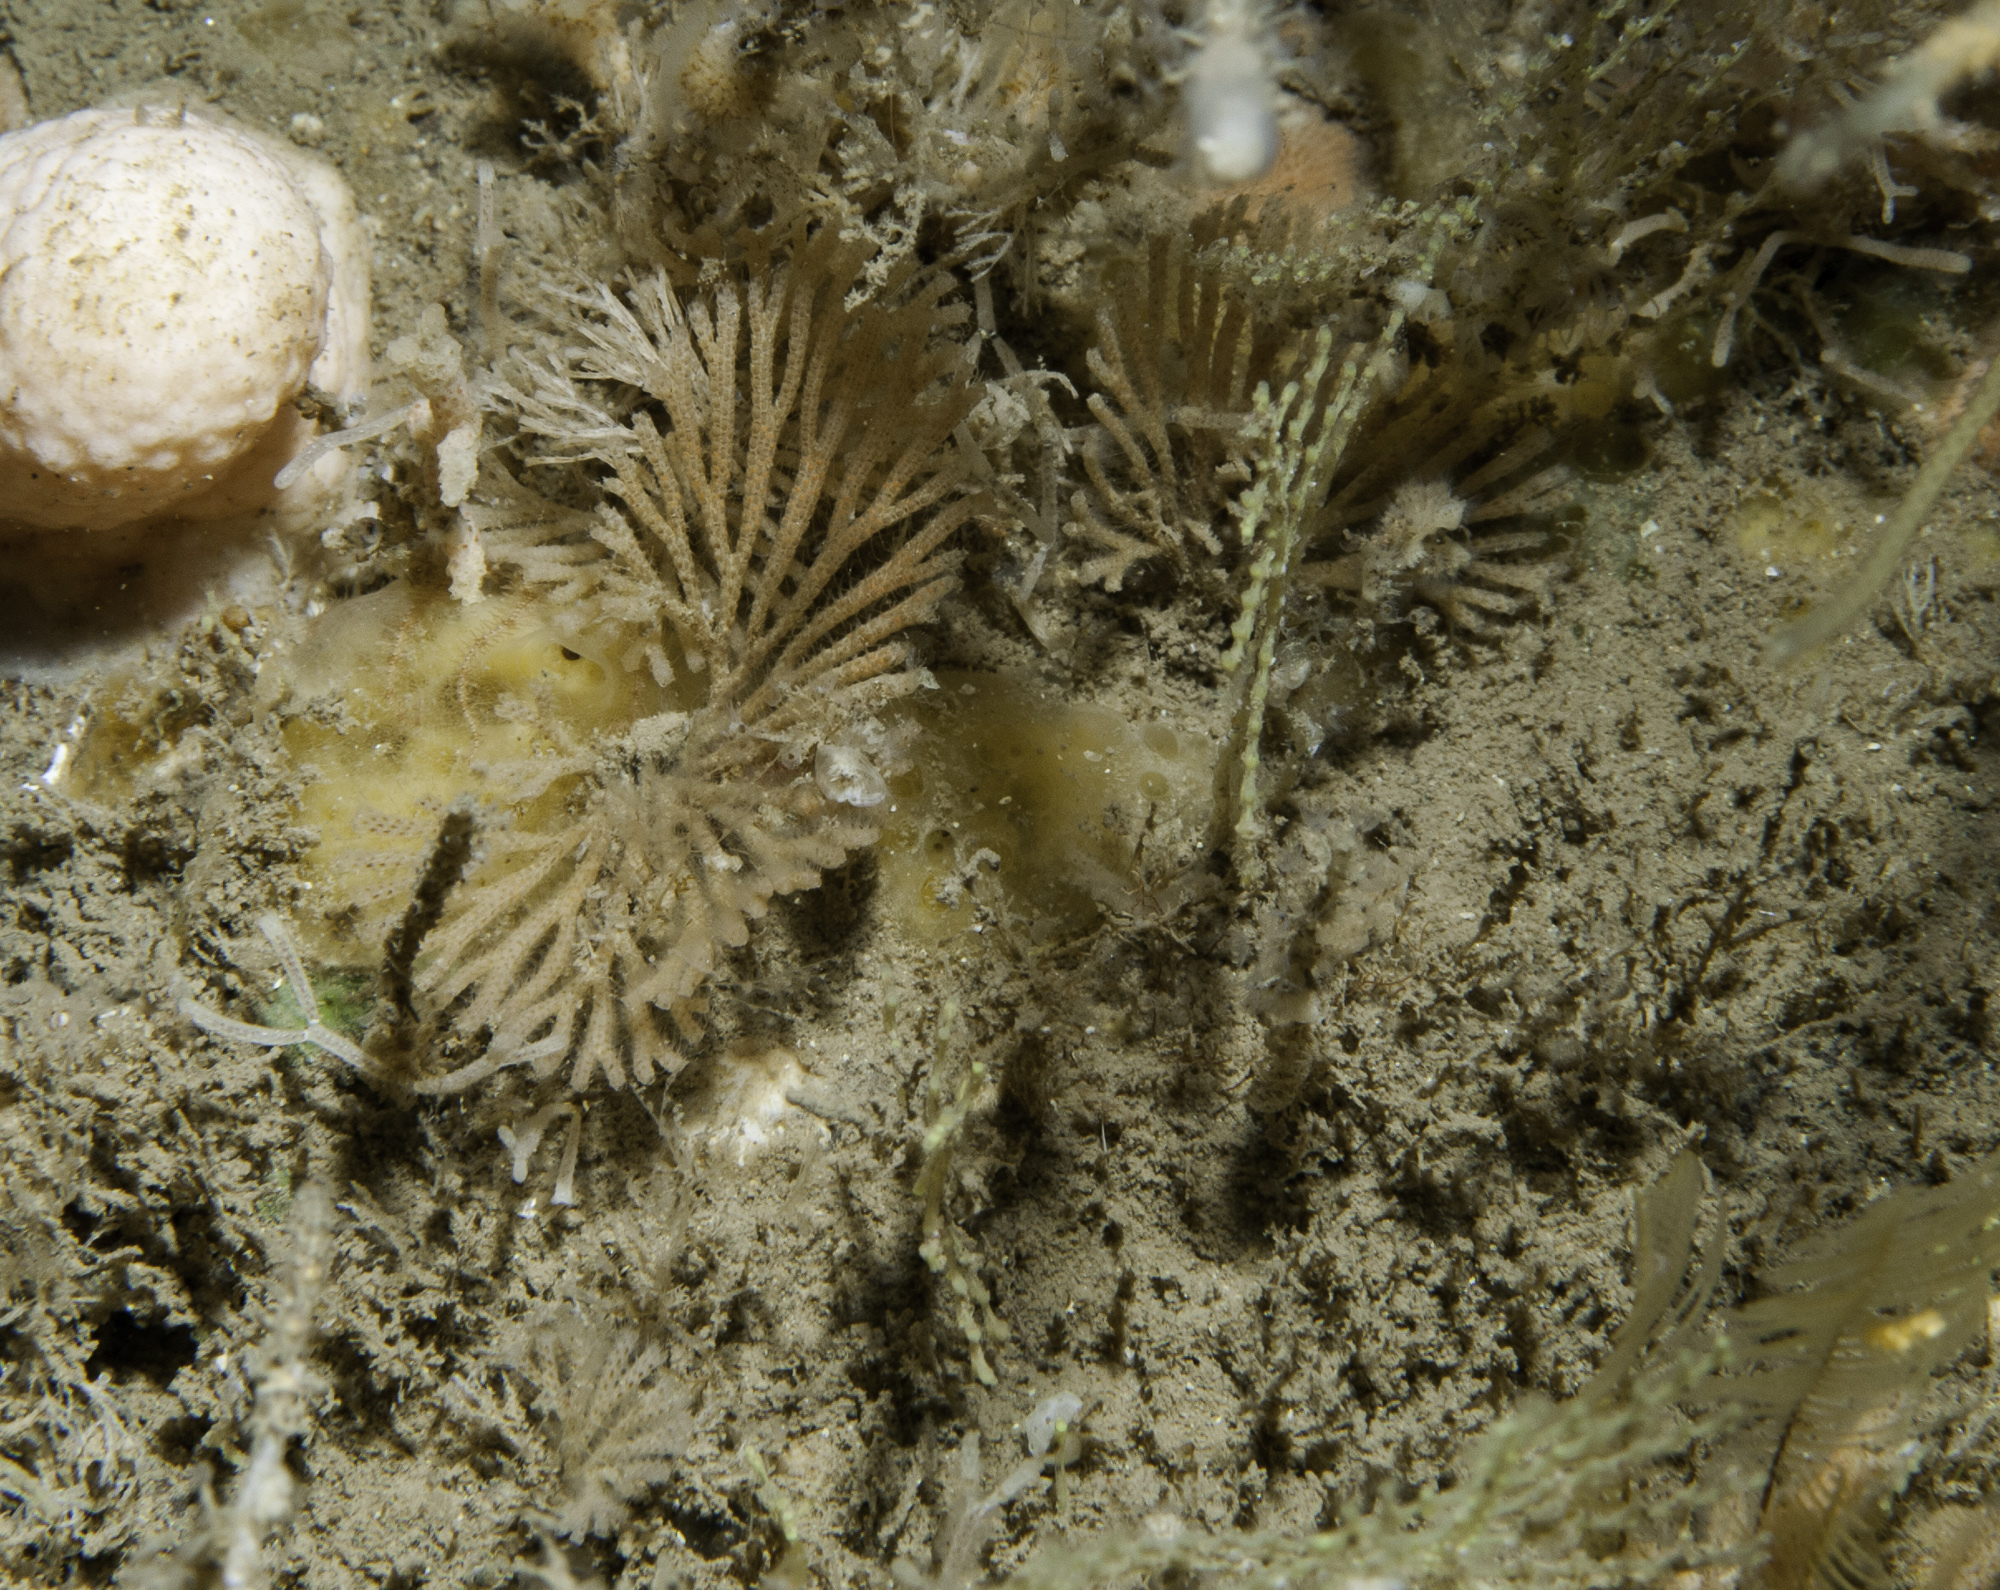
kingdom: Animalia
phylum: Bryozoa
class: Gymnolaemata
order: Cheilostomatida
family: Candidae
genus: Caberea
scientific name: Caberea ellisii
